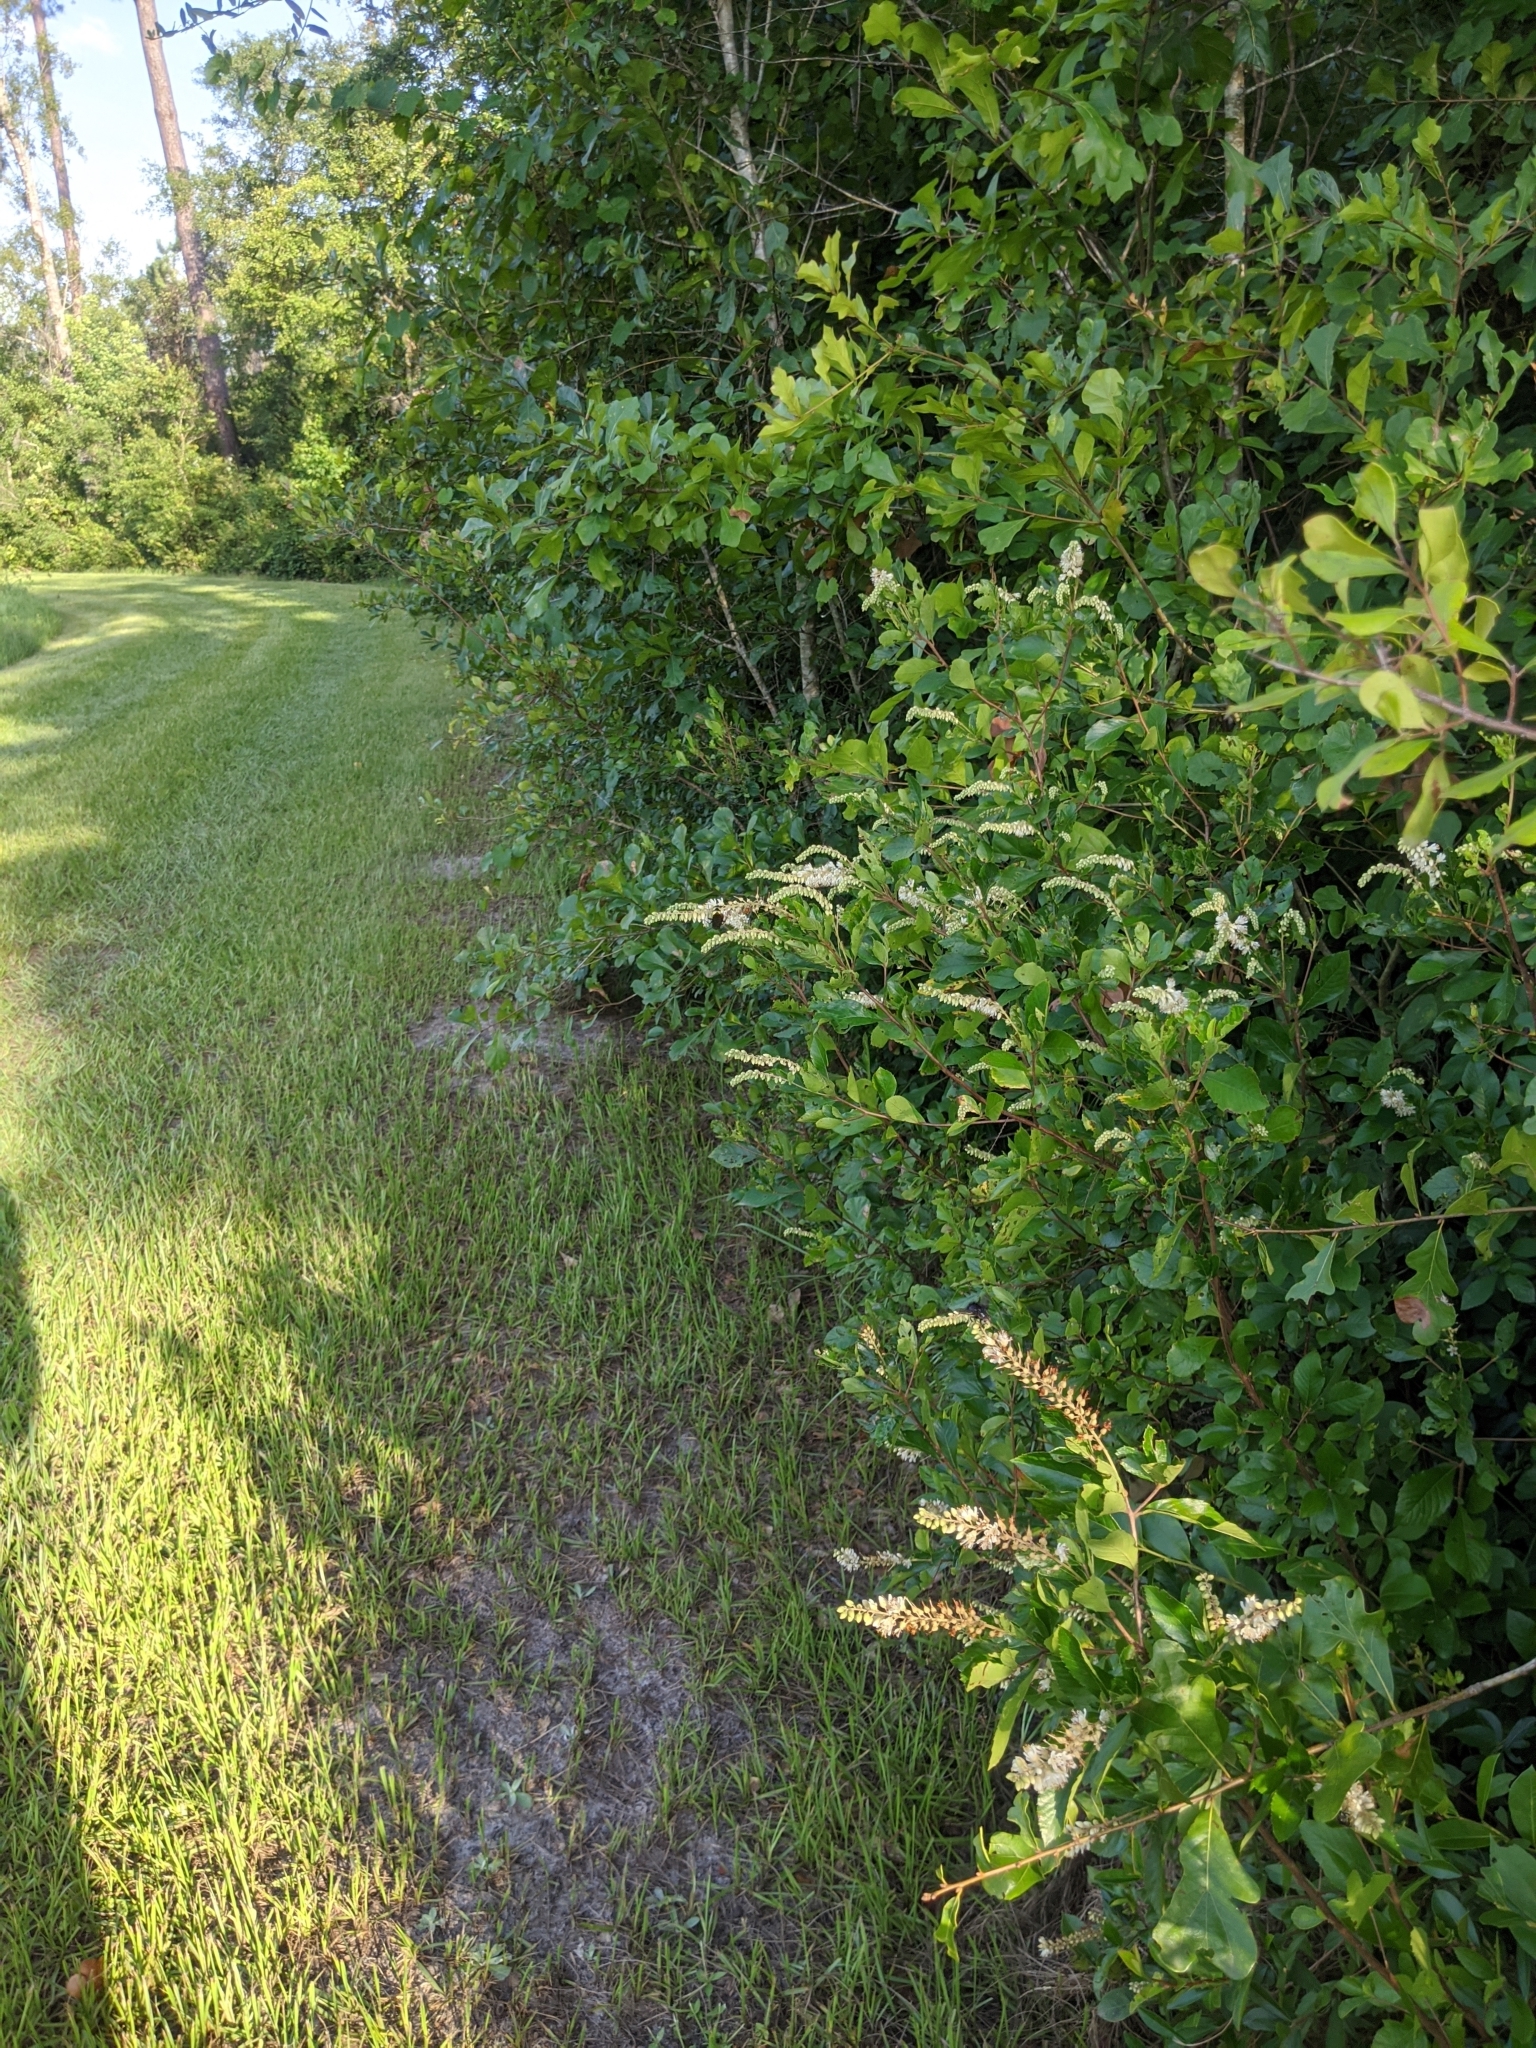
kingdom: Plantae
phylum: Tracheophyta
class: Magnoliopsida
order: Ericales
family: Clethraceae
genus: Clethra
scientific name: Clethra alnifolia
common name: Sweet pepperbush
